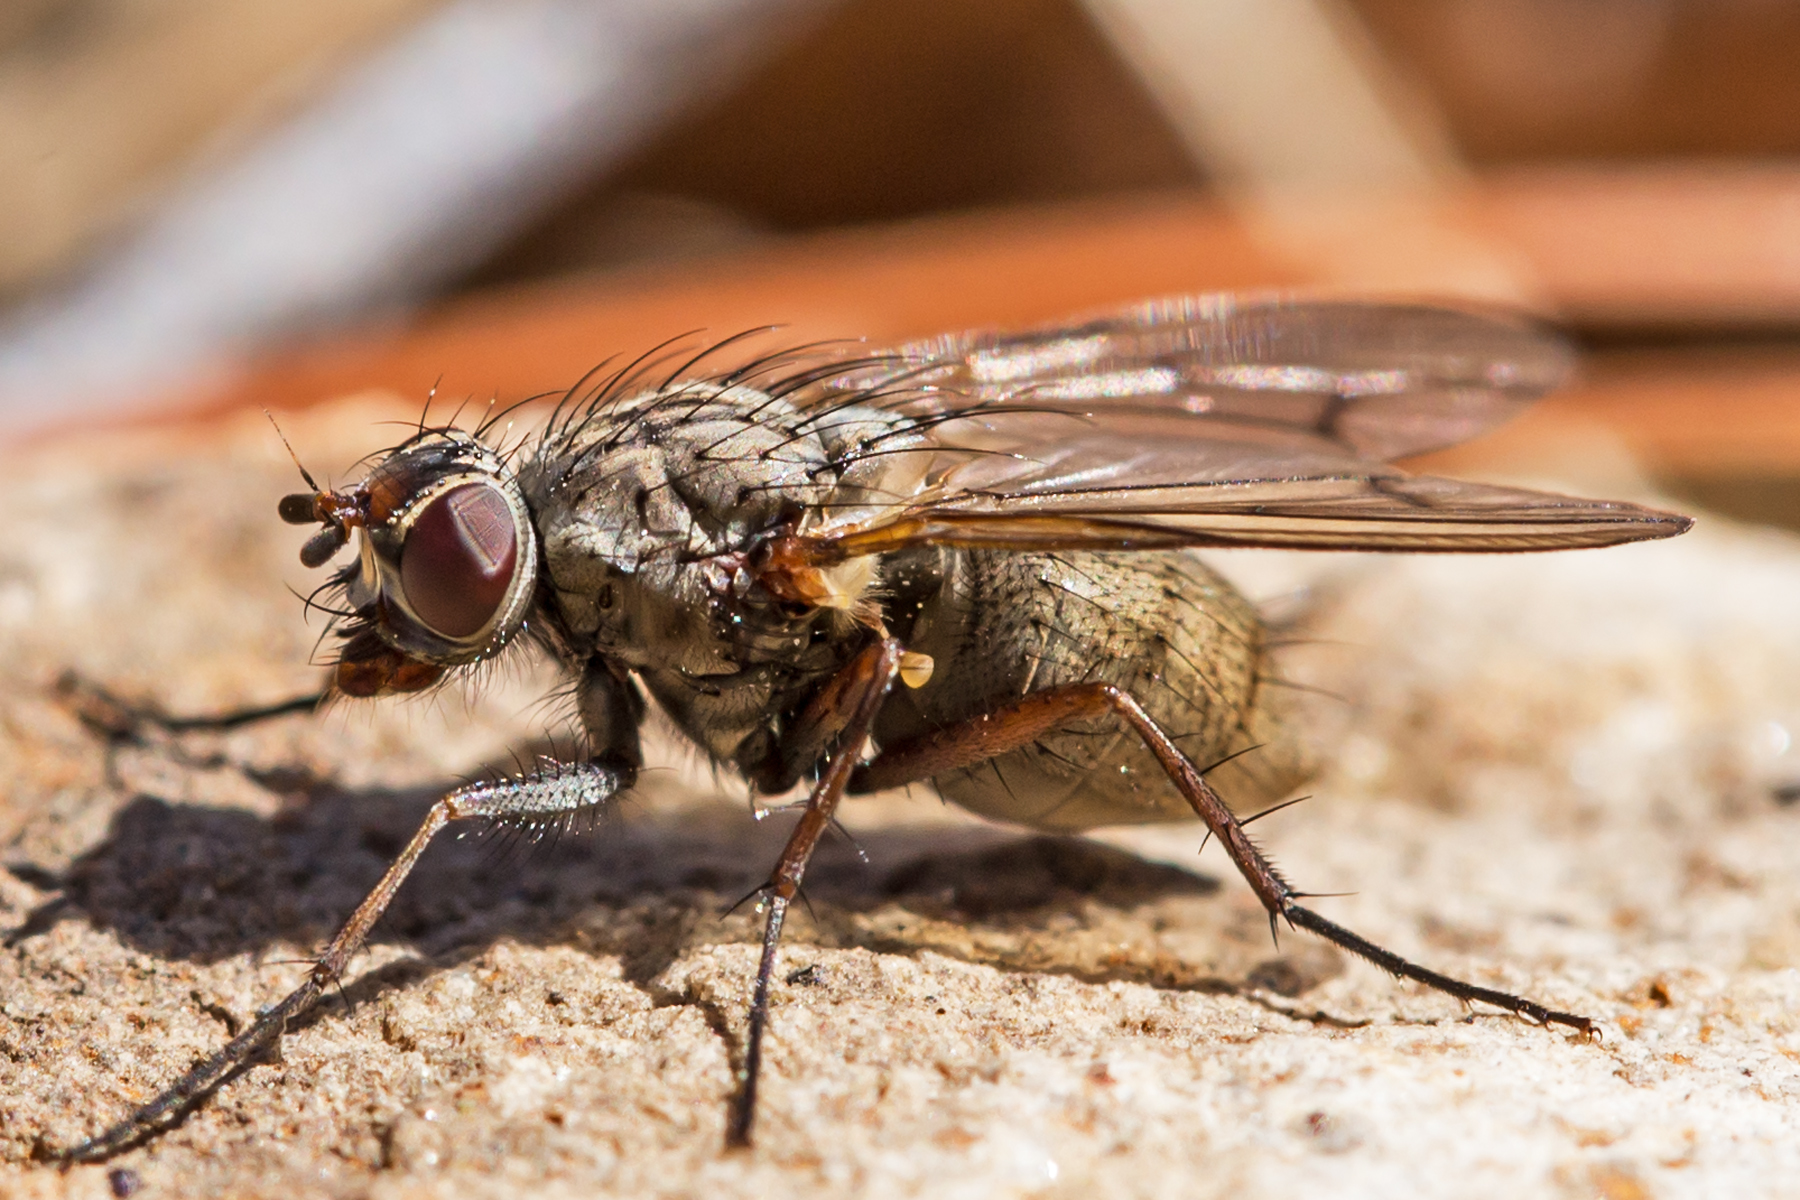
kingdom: Animalia
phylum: Arthropoda
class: Insecta
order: Diptera
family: Anthomyiidae
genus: Eutrichota
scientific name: Eutrichota cylindrica
